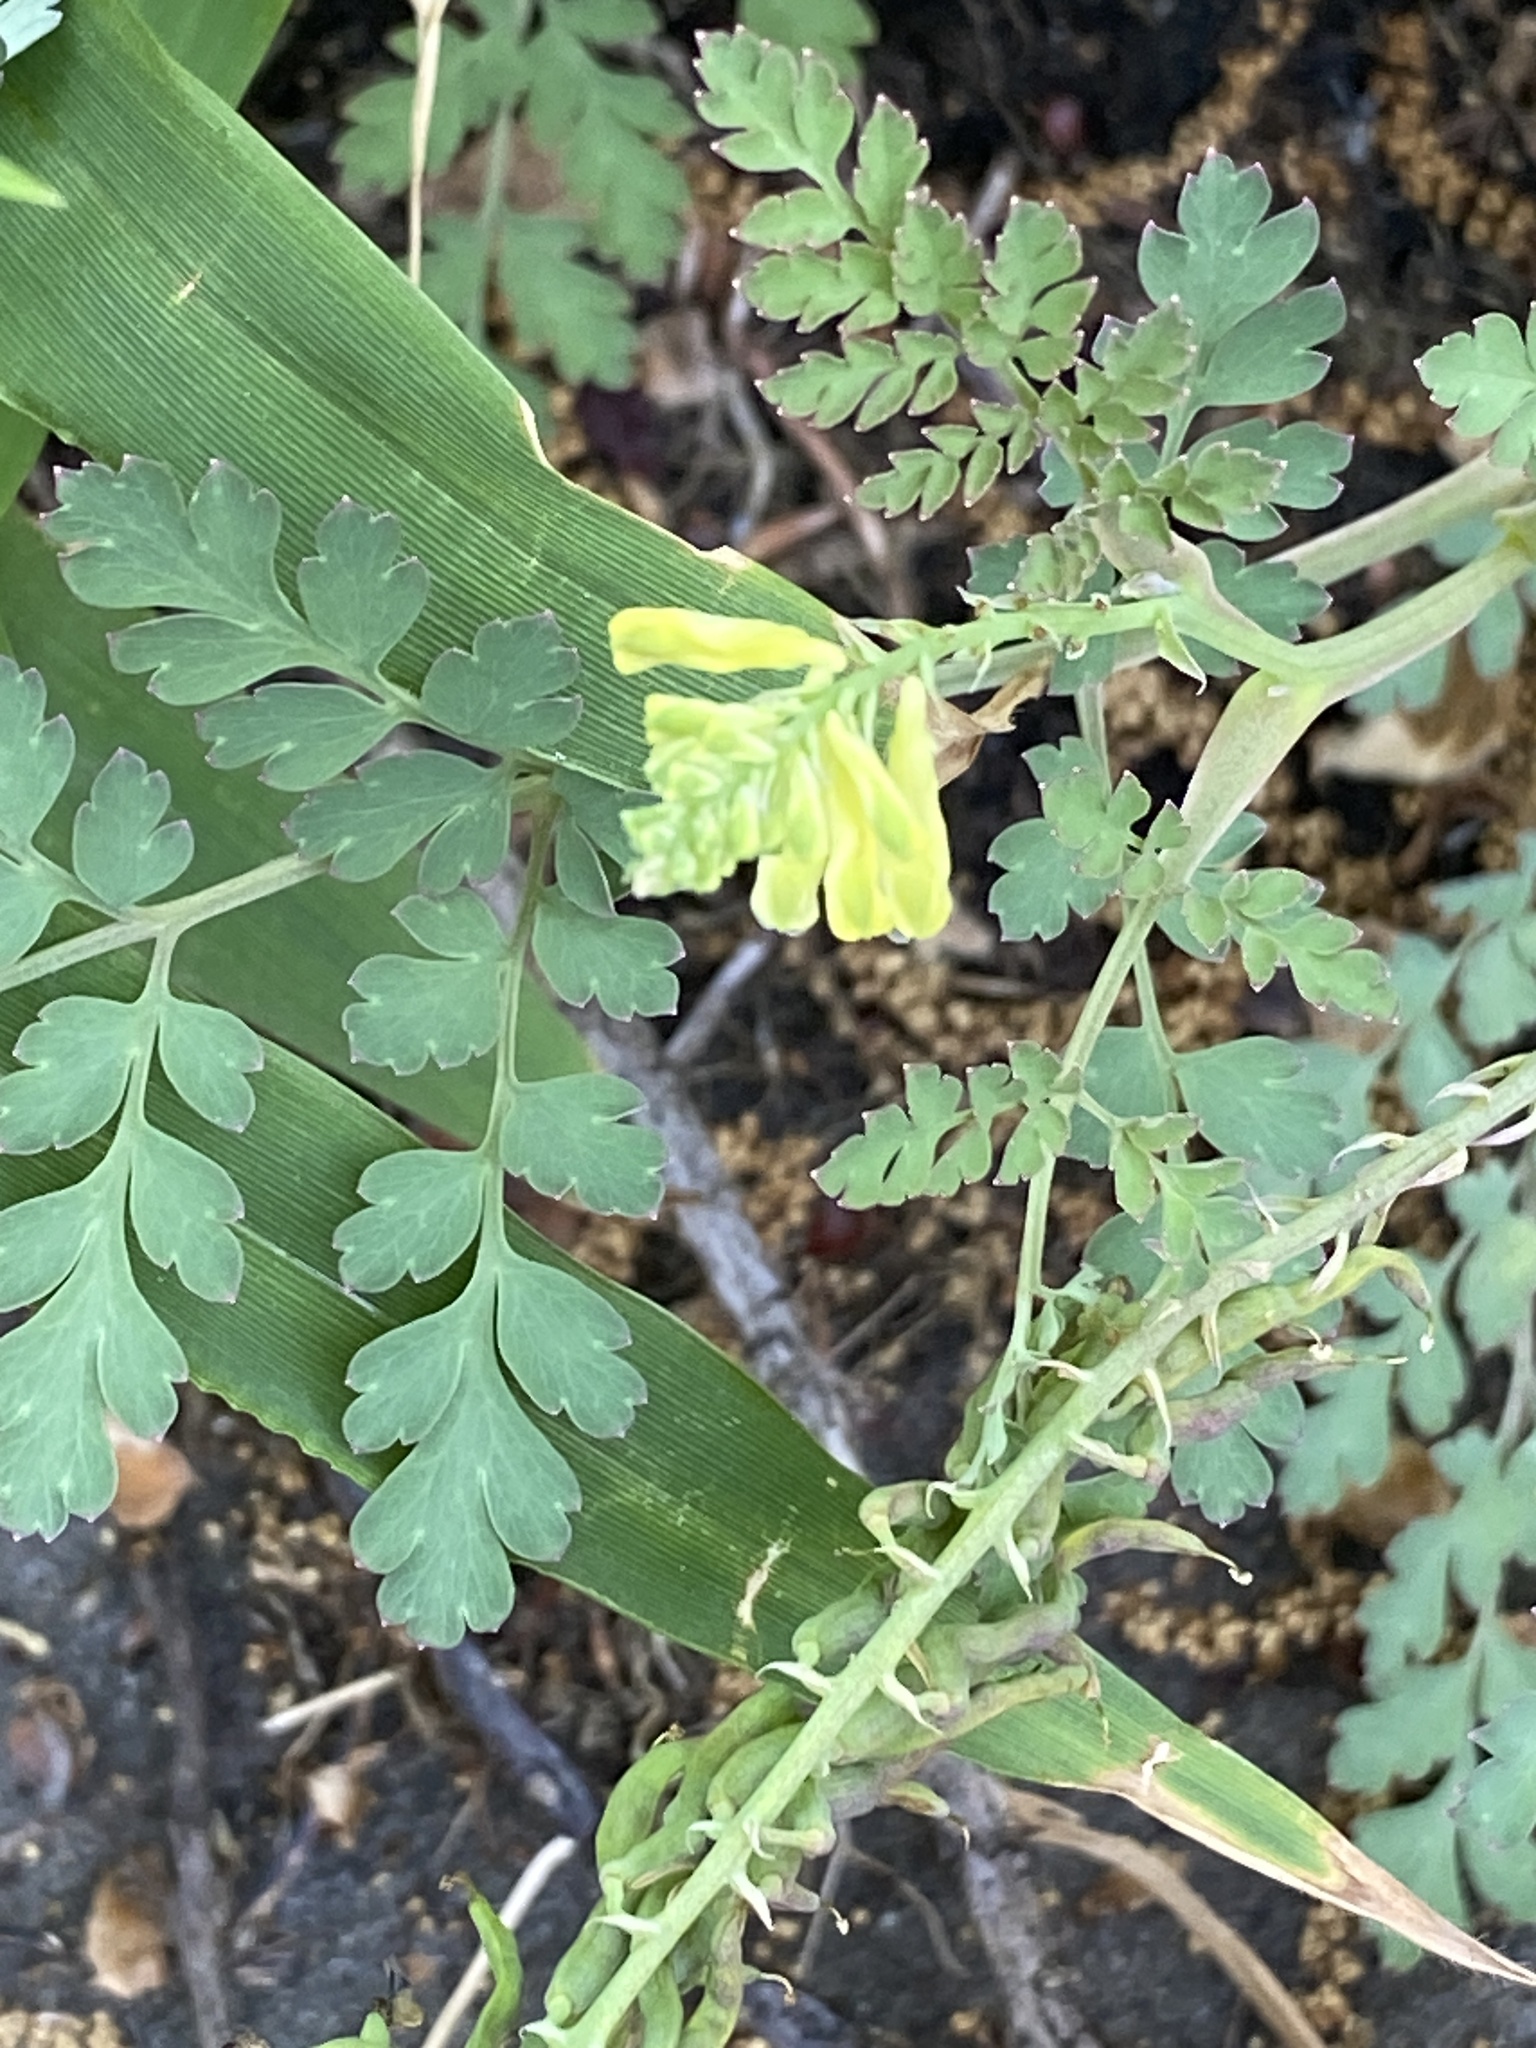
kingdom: Plantae
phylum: Tracheophyta
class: Magnoliopsida
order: Ranunculales
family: Papaveraceae
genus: Corydalis
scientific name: Corydalis cheilanthifolia
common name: Fern-leaved corydalis
